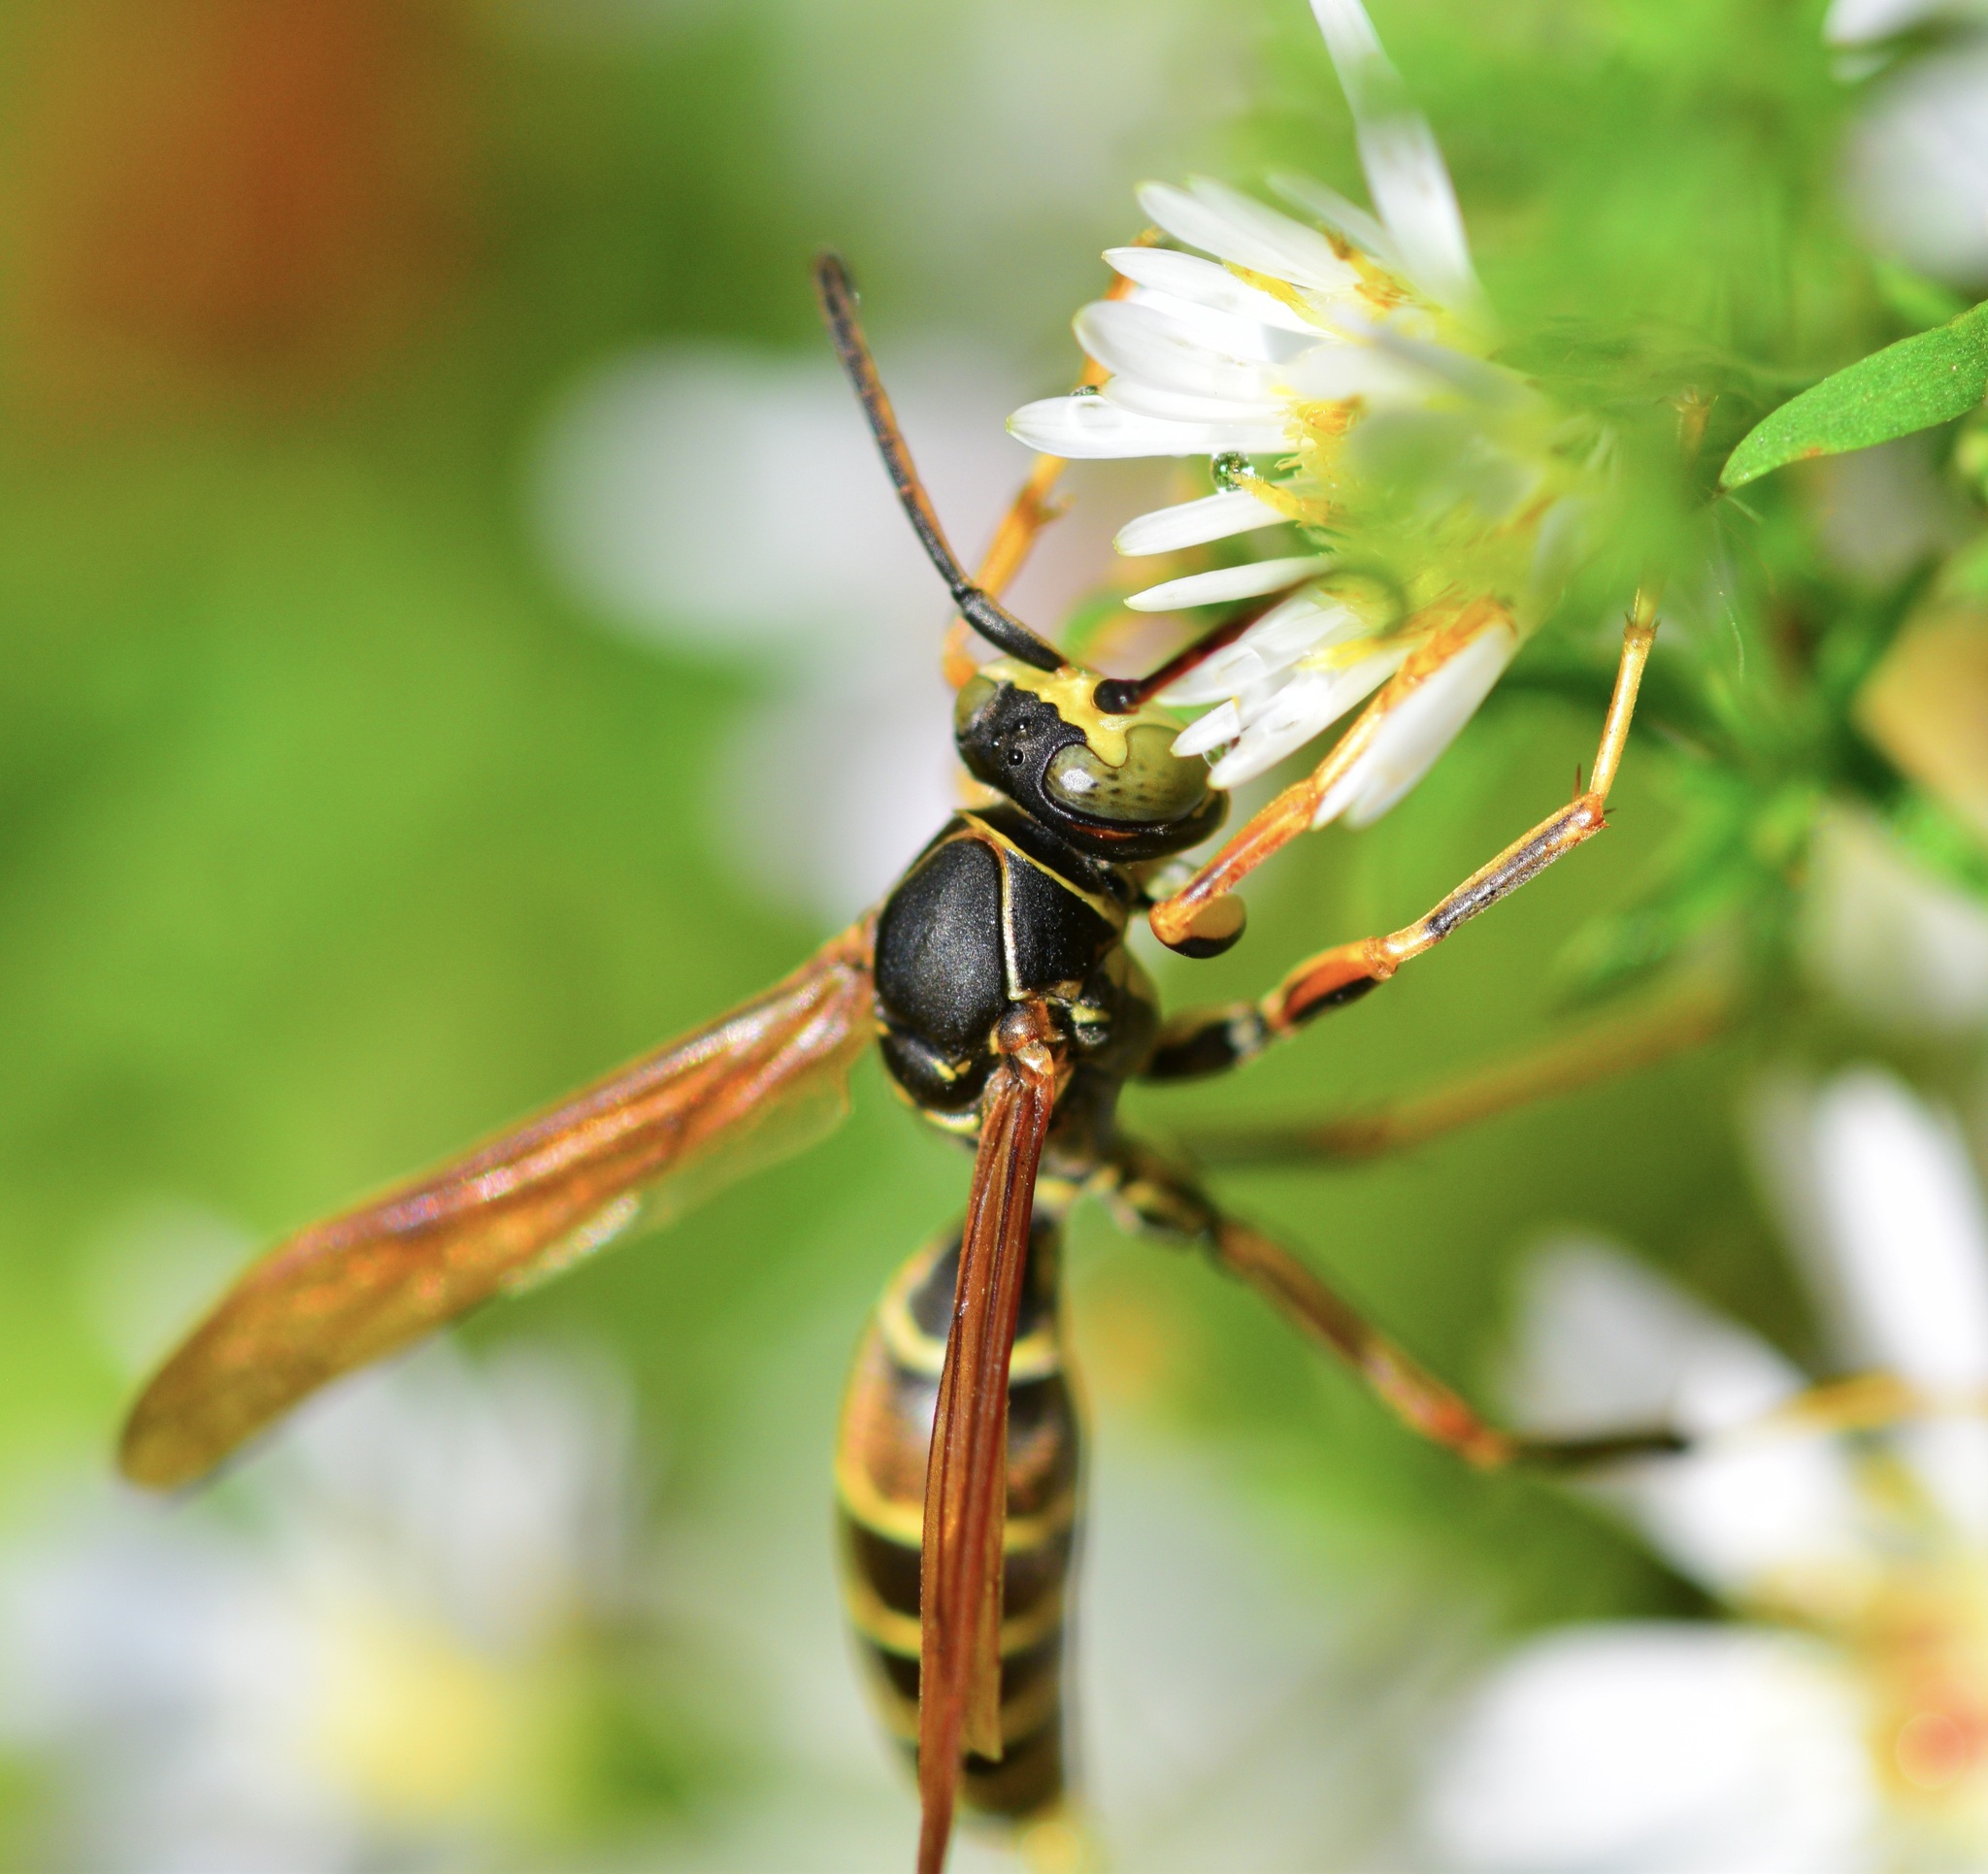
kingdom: Animalia
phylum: Arthropoda
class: Insecta
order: Hymenoptera
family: Eumenidae
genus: Polistes
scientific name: Polistes fuscatus
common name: Dark paper wasp
